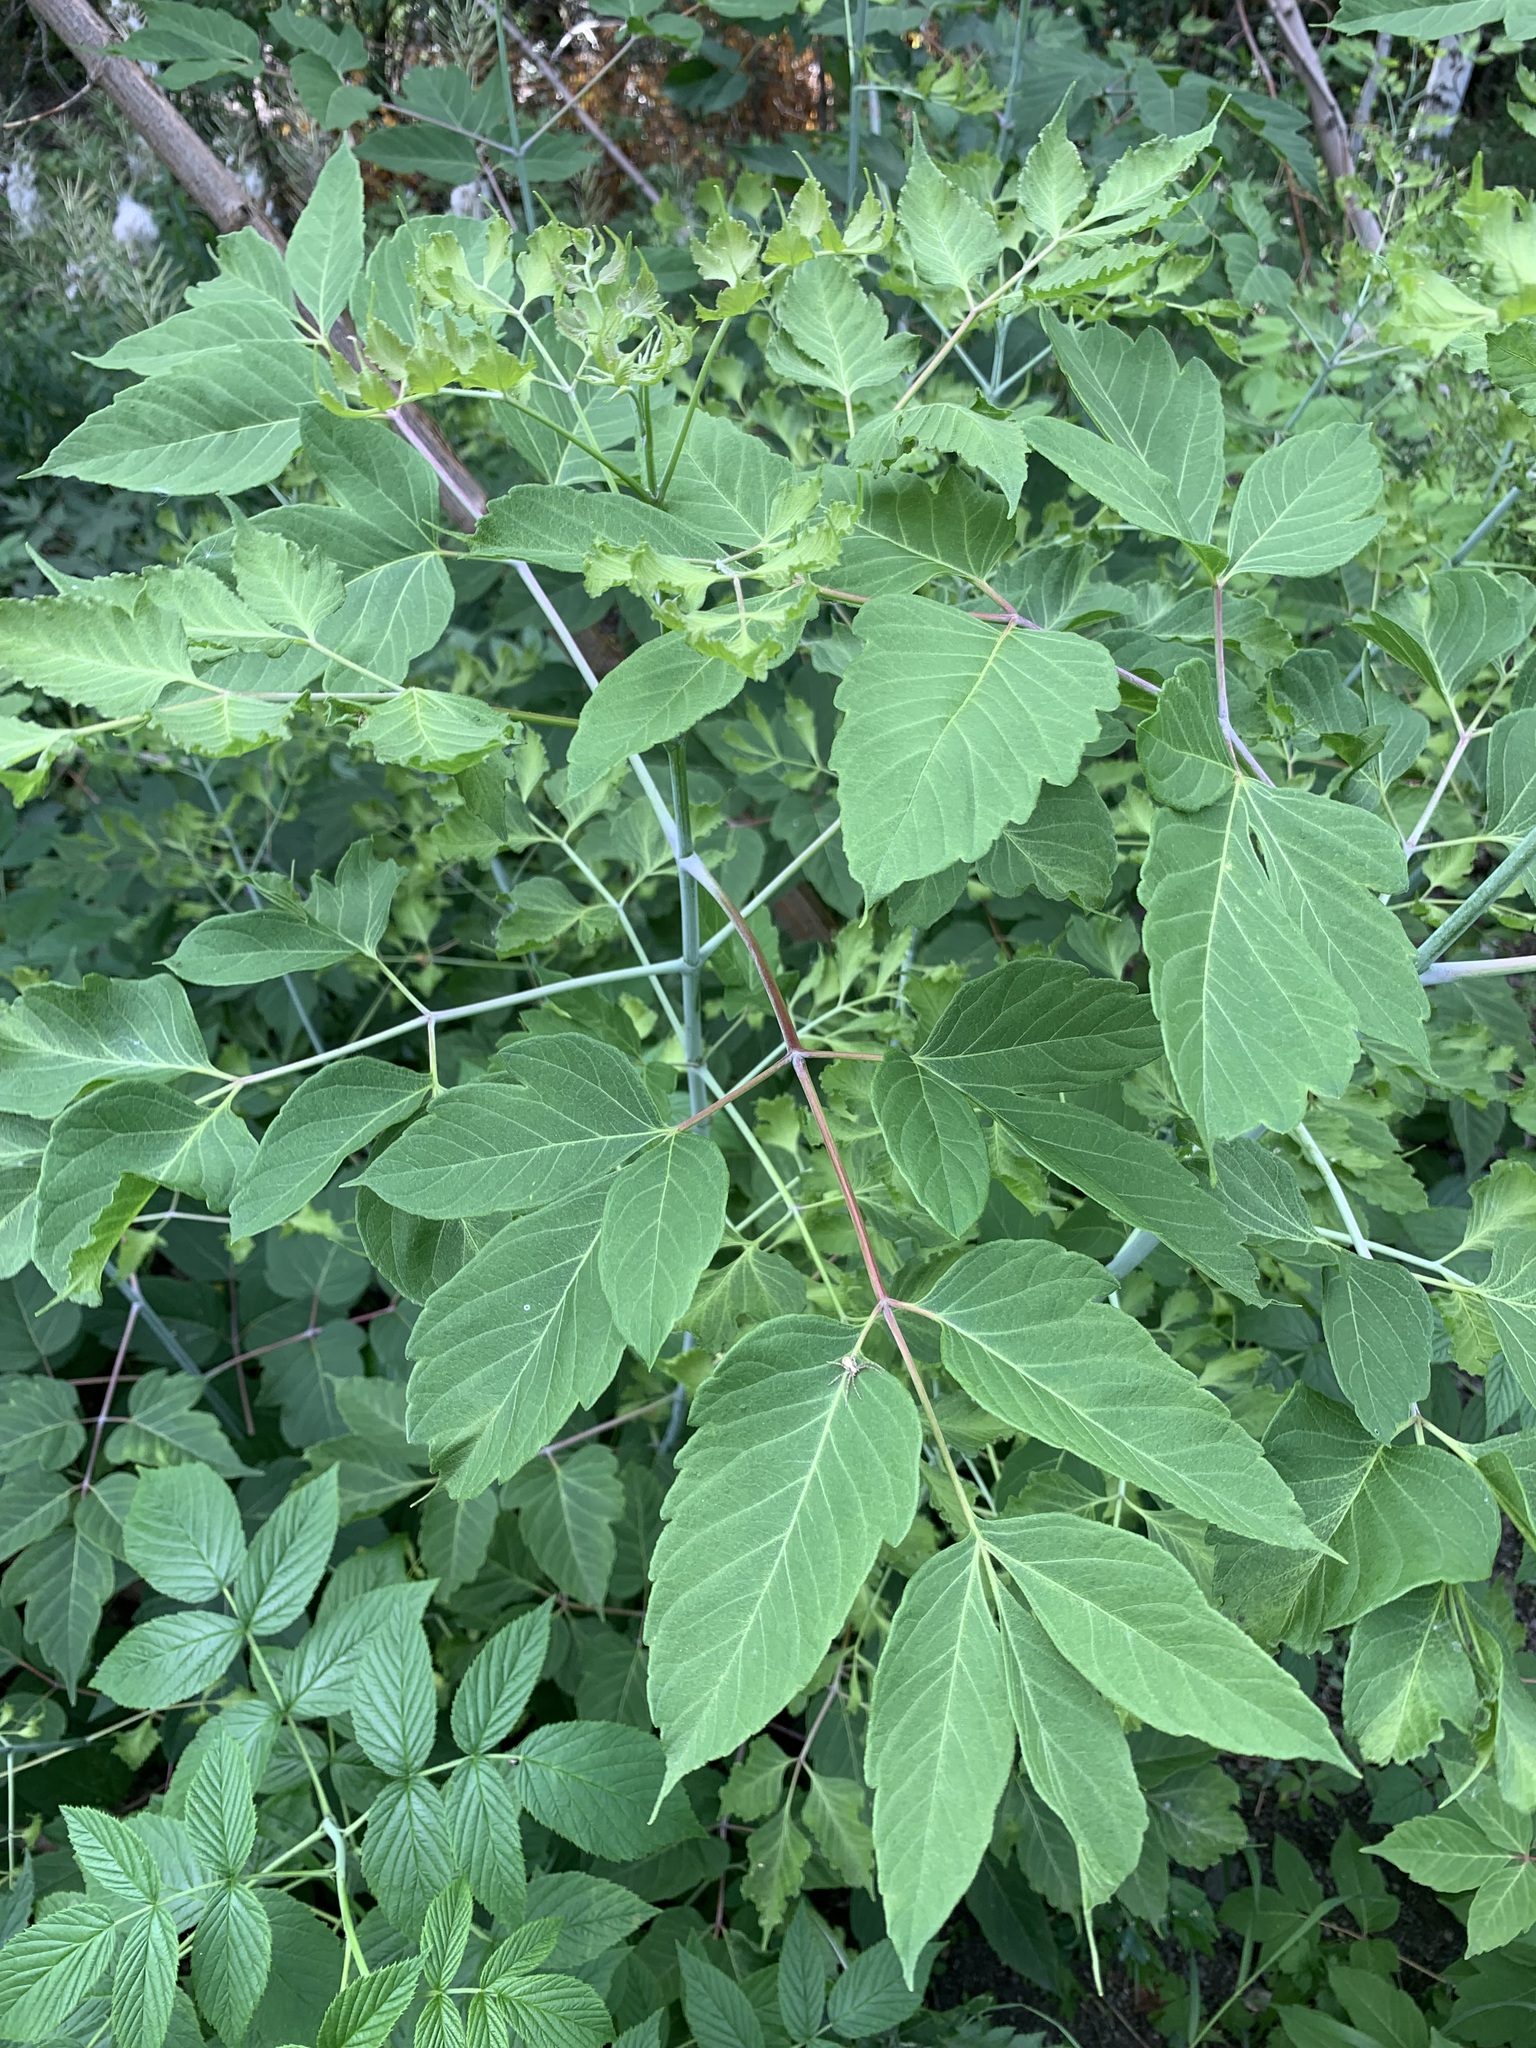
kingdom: Plantae
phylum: Tracheophyta
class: Magnoliopsida
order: Sapindales
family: Sapindaceae
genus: Acer
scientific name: Acer negundo
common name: Ashleaf maple
